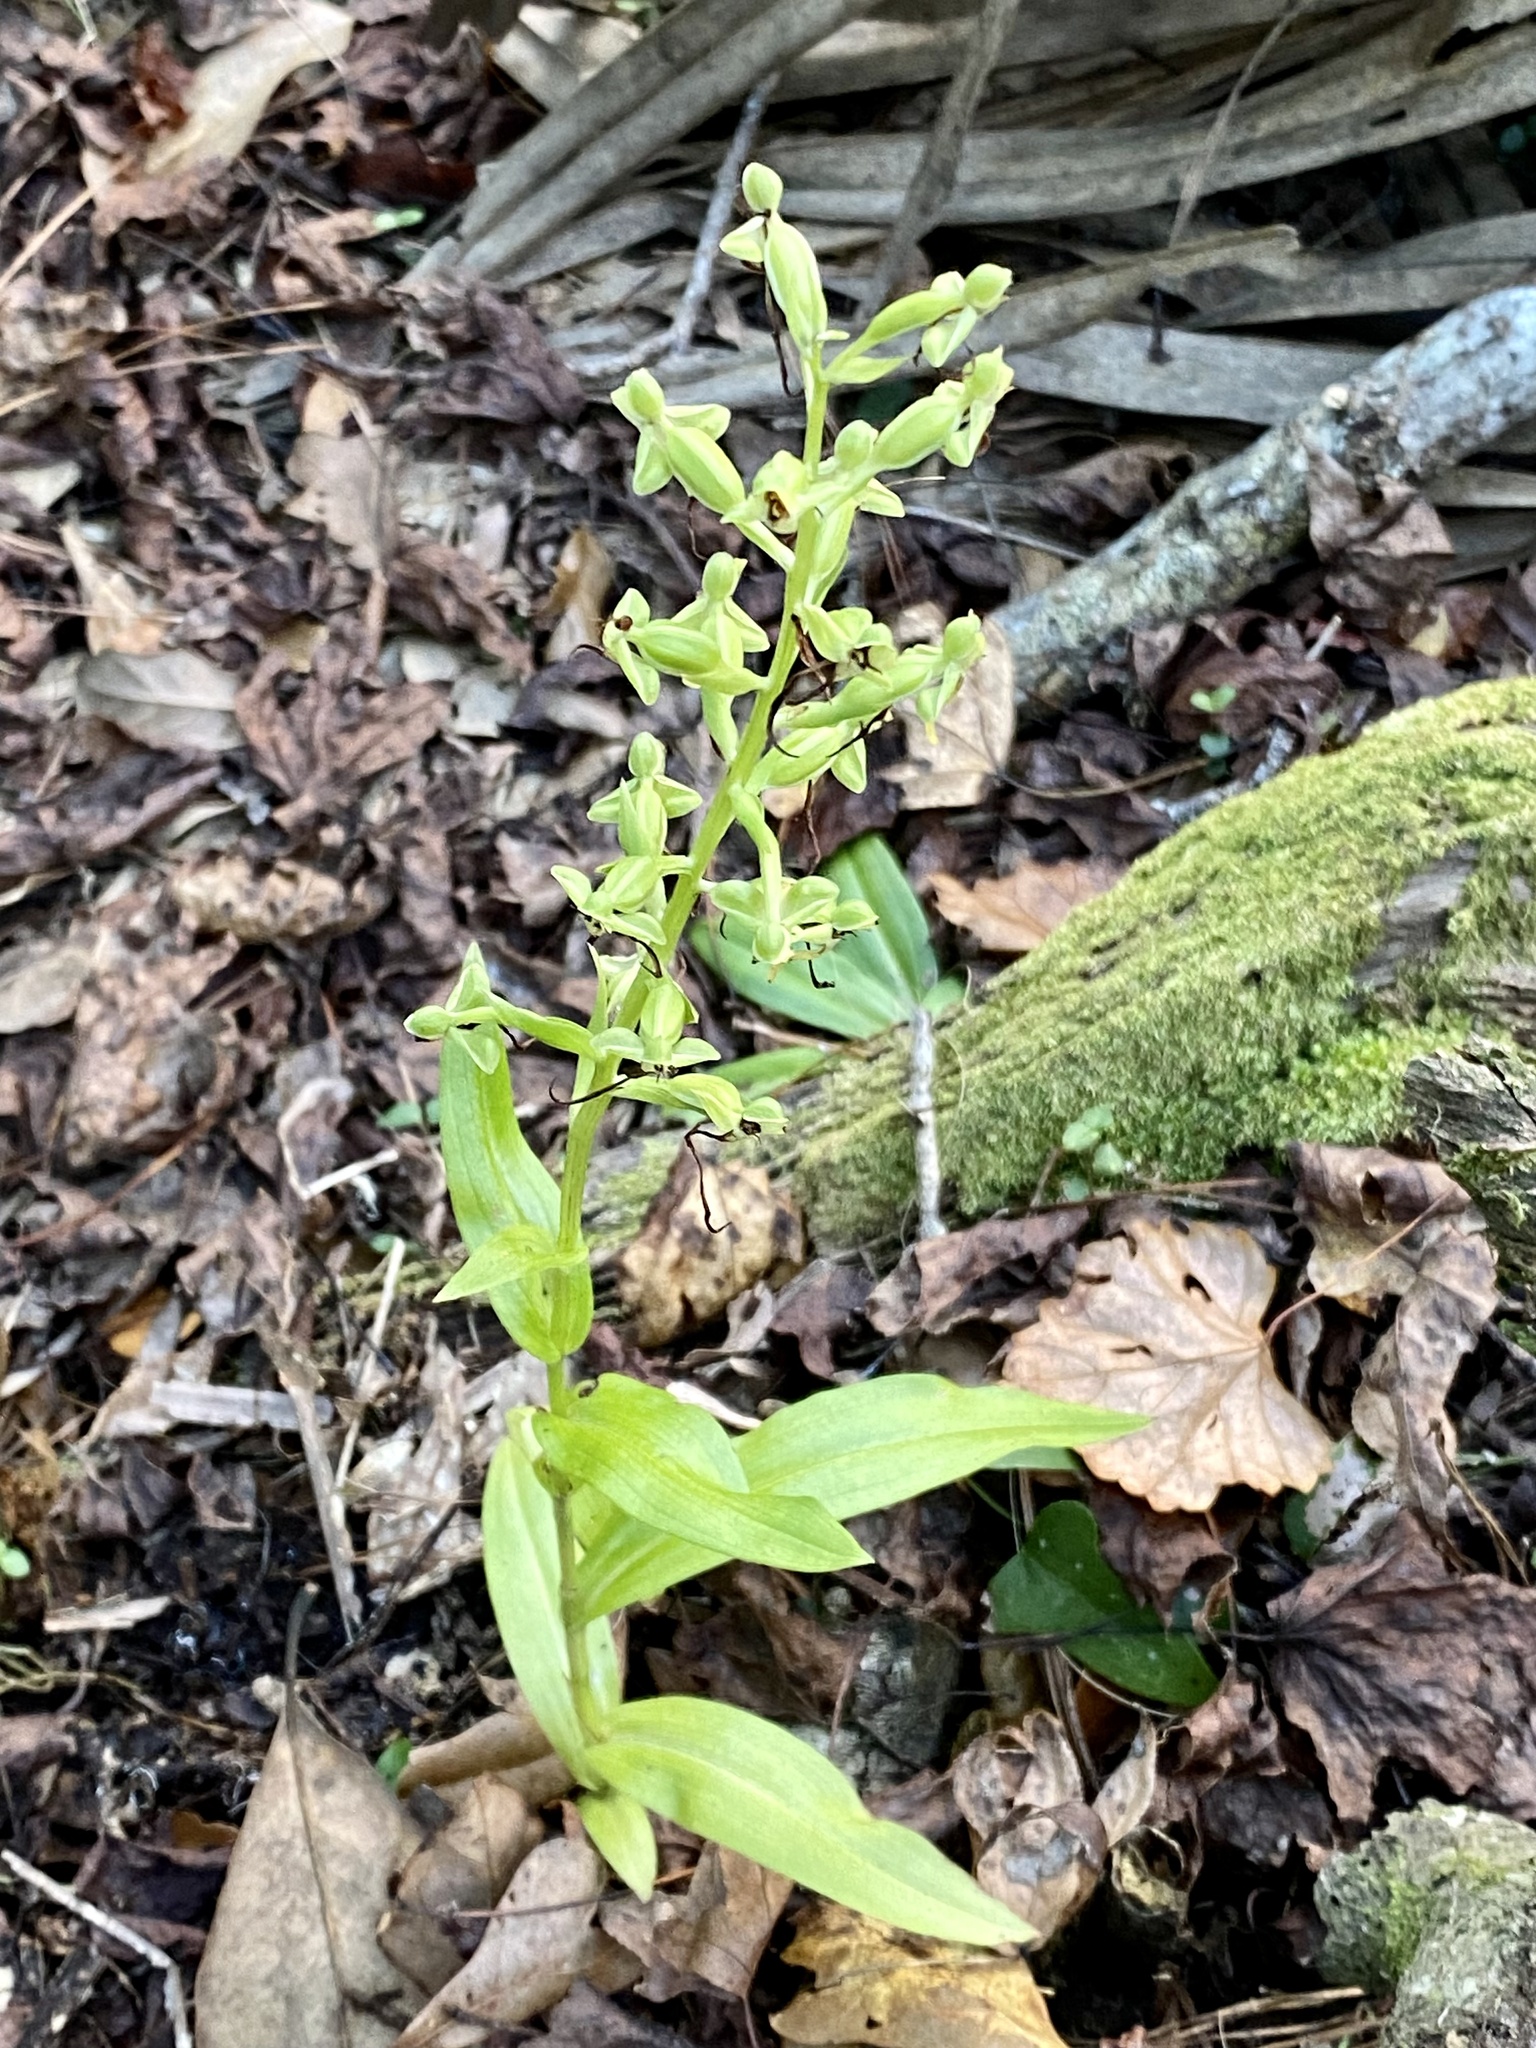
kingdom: Plantae
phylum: Tracheophyta
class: Liliopsida
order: Asparagales
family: Orchidaceae
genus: Habenaria
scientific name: Habenaria floribunda
